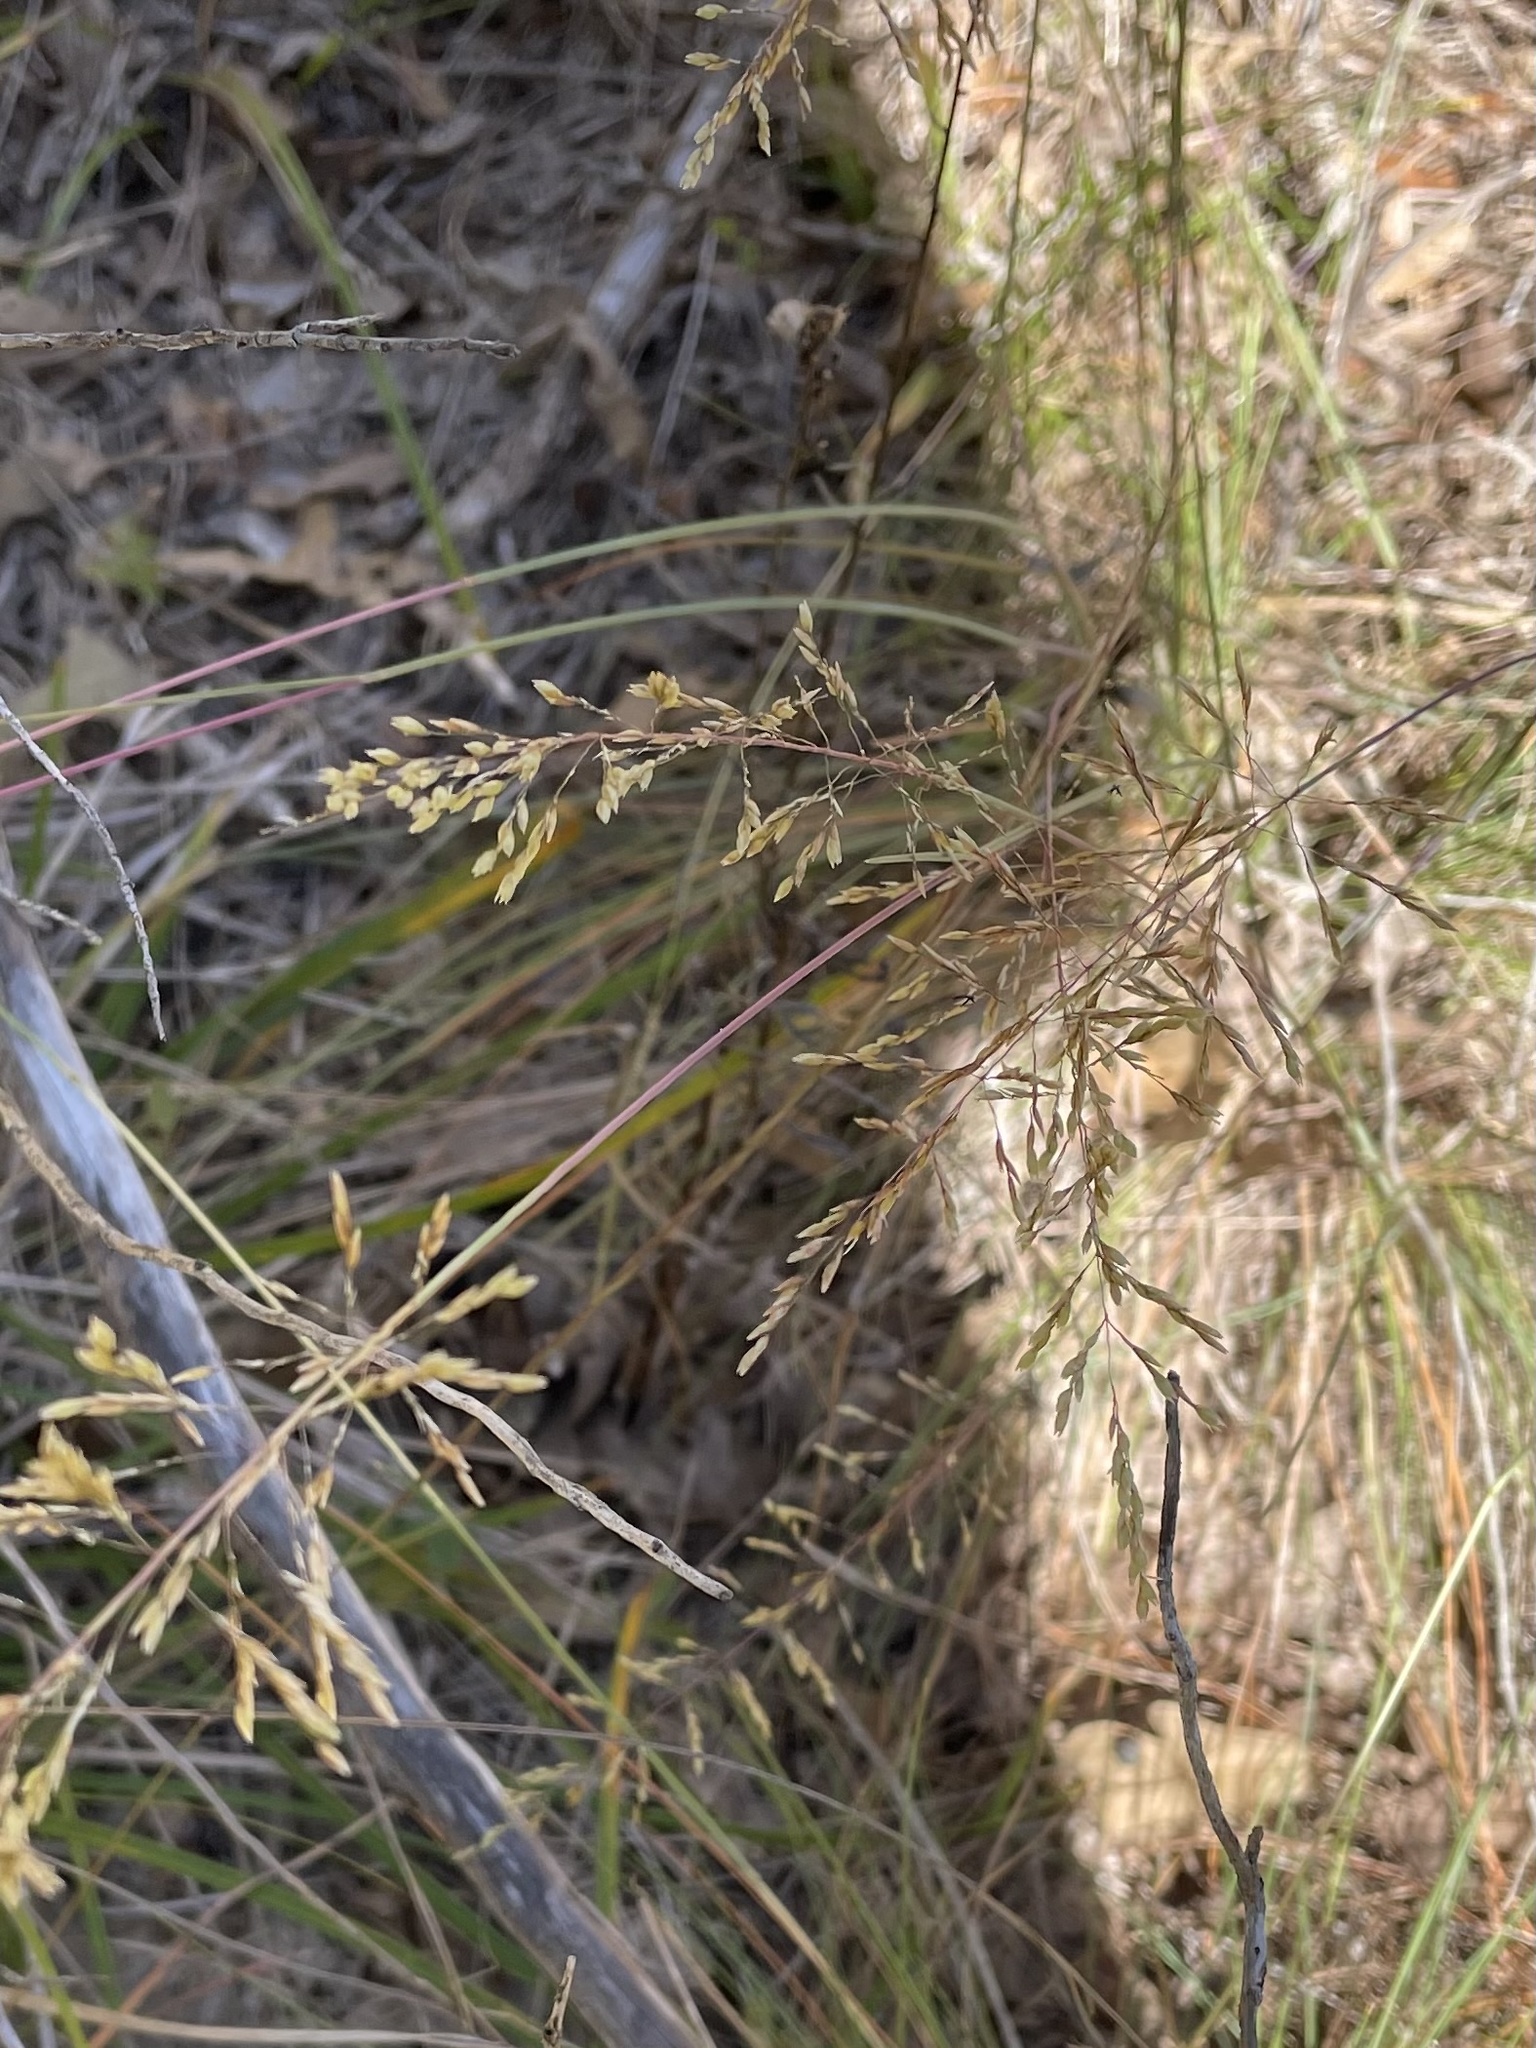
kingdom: Plantae
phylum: Tracheophyta
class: Liliopsida
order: Poales
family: Poaceae
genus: Sporobolus
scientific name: Sporobolus junceus
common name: Lizard grass
